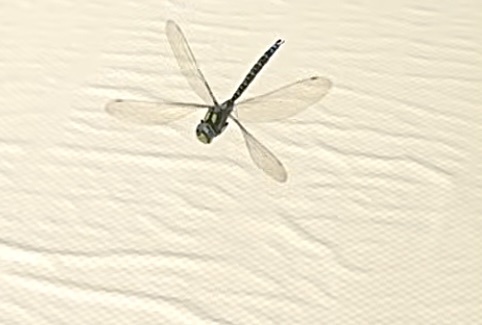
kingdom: Animalia
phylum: Arthropoda
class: Insecta
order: Odonata
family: Aeshnidae
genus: Aeshna
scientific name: Aeshna cyanea
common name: Southern hawker
